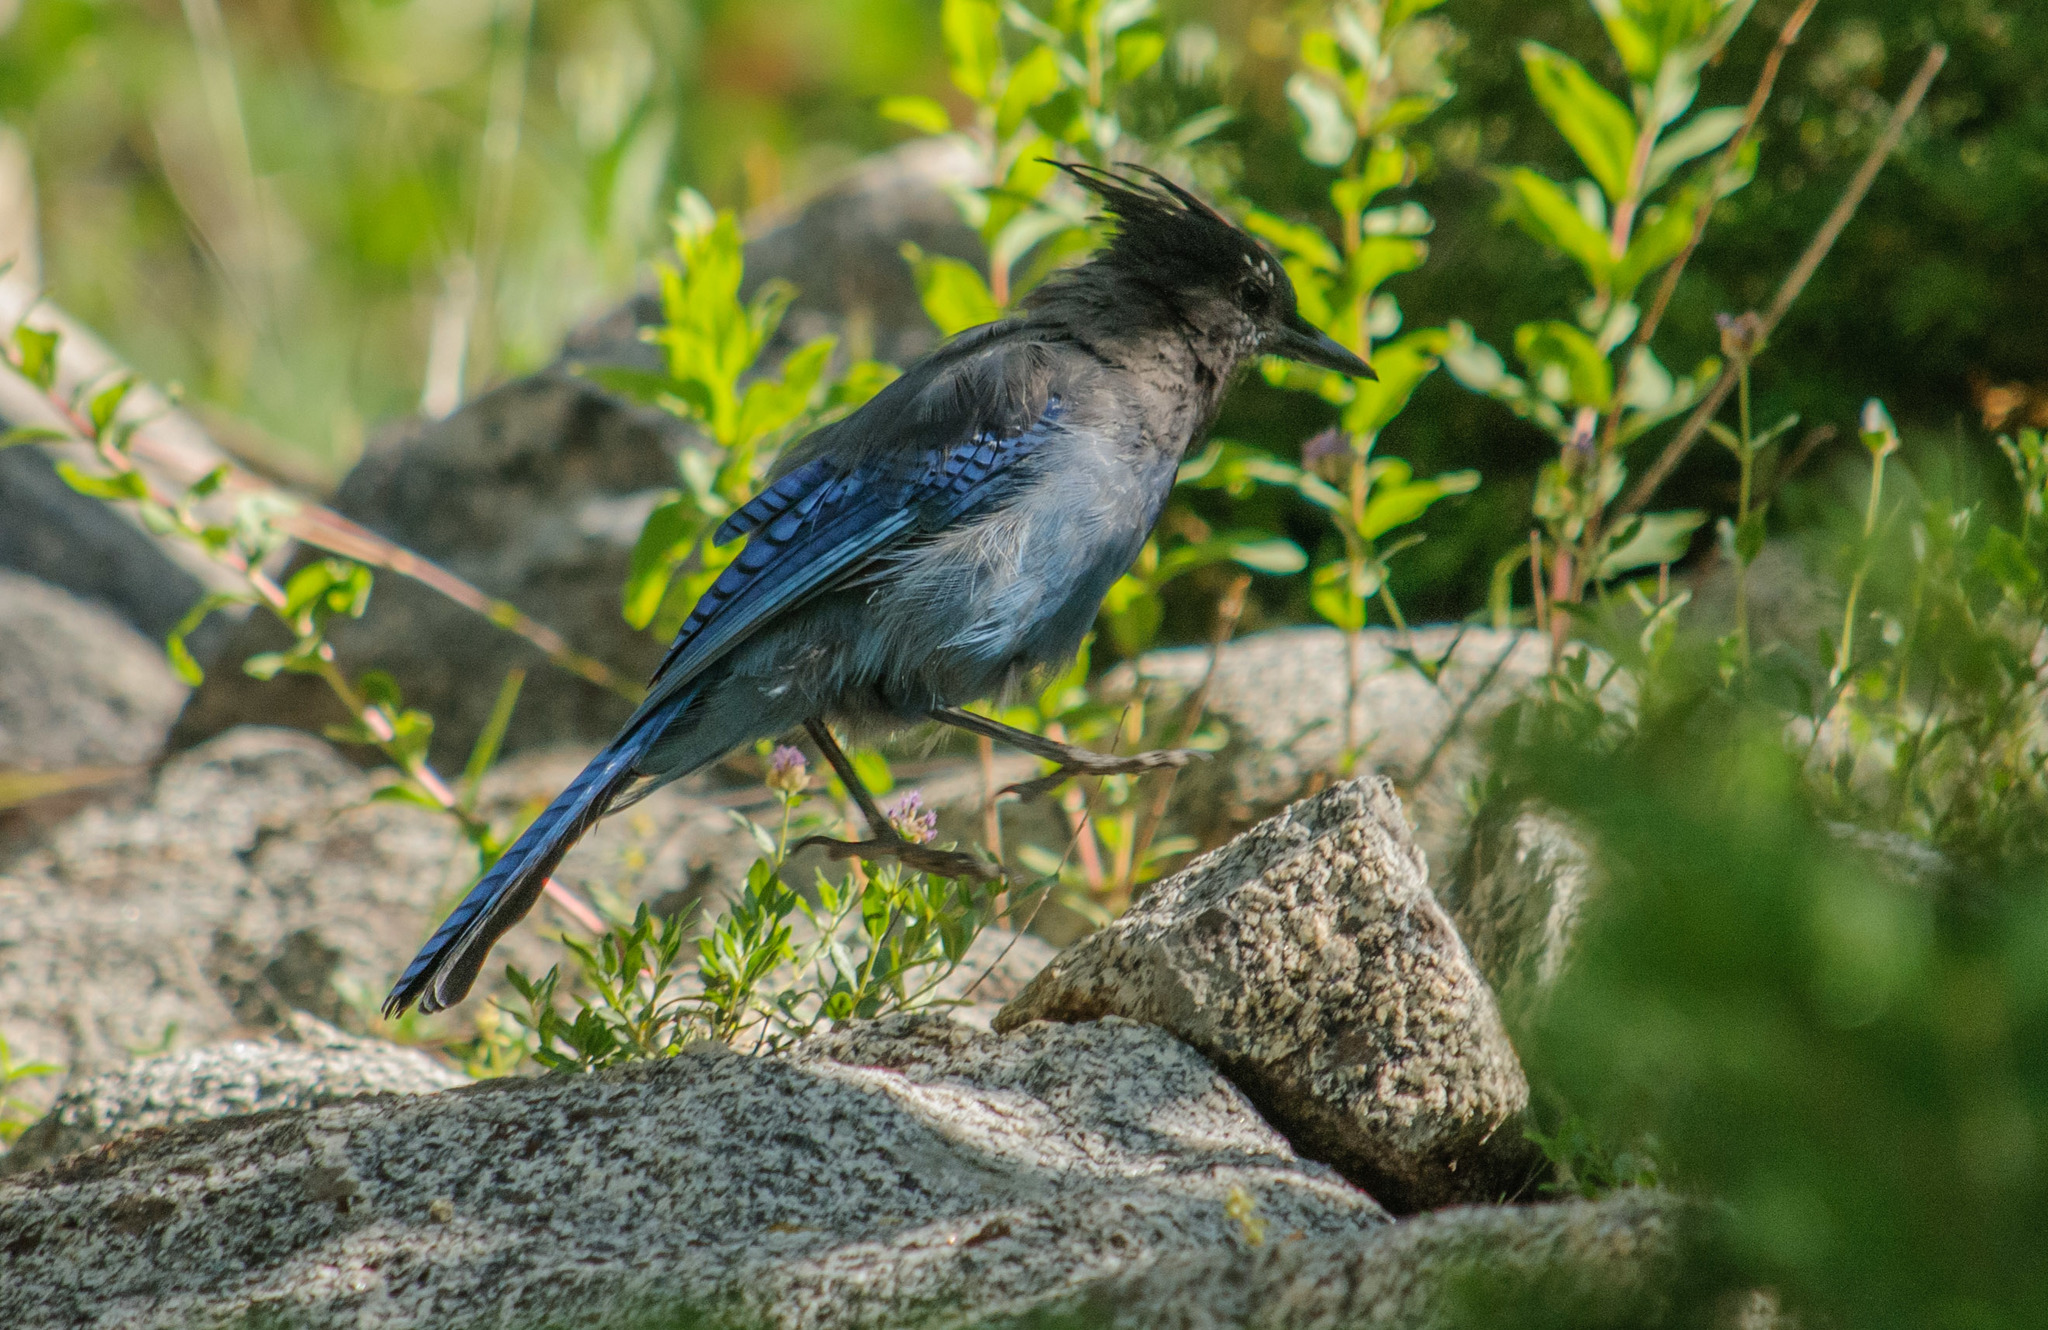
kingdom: Animalia
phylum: Chordata
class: Aves
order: Passeriformes
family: Corvidae
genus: Cyanocitta
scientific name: Cyanocitta stelleri
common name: Steller's jay
